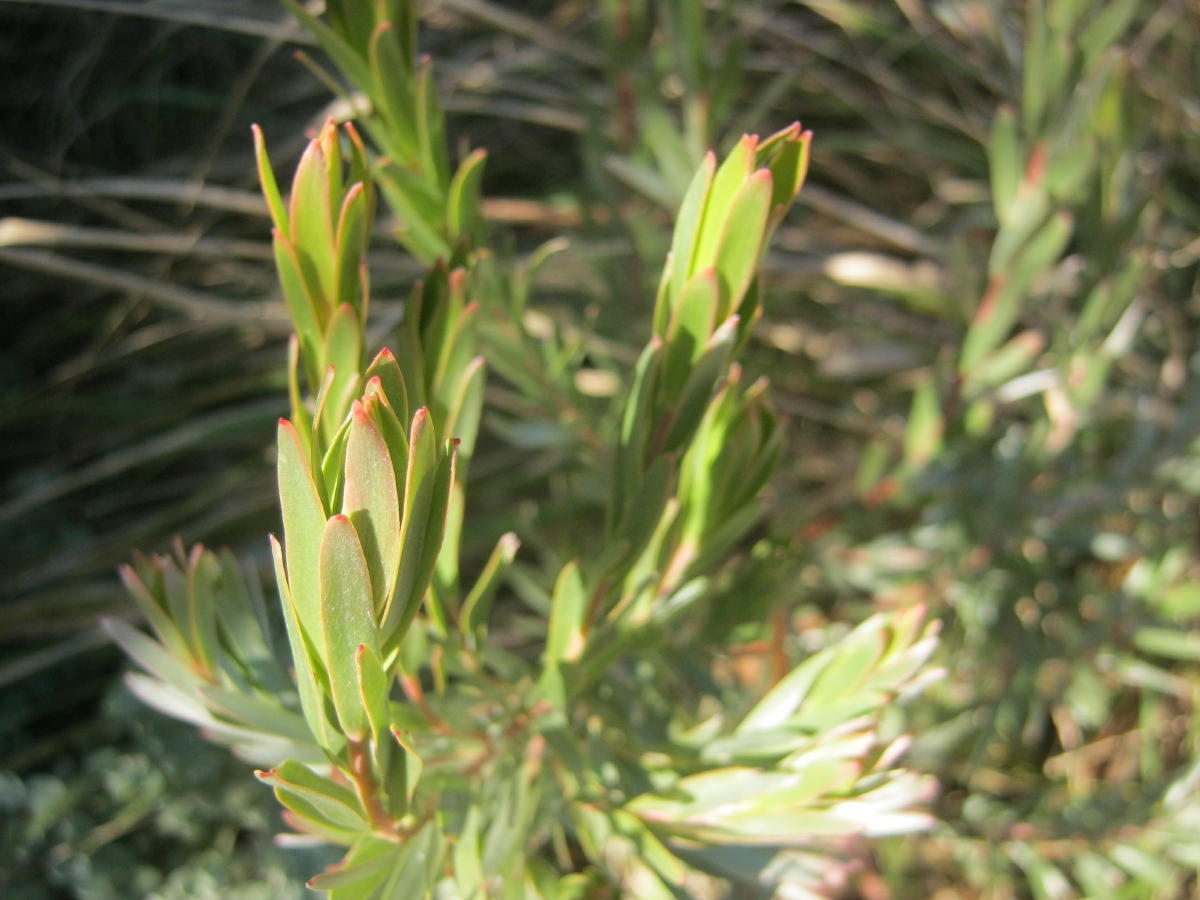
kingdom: Plantae
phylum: Tracheophyta
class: Magnoliopsida
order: Proteales
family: Proteaceae
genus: Leucadendron
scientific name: Leucadendron uliginosum
